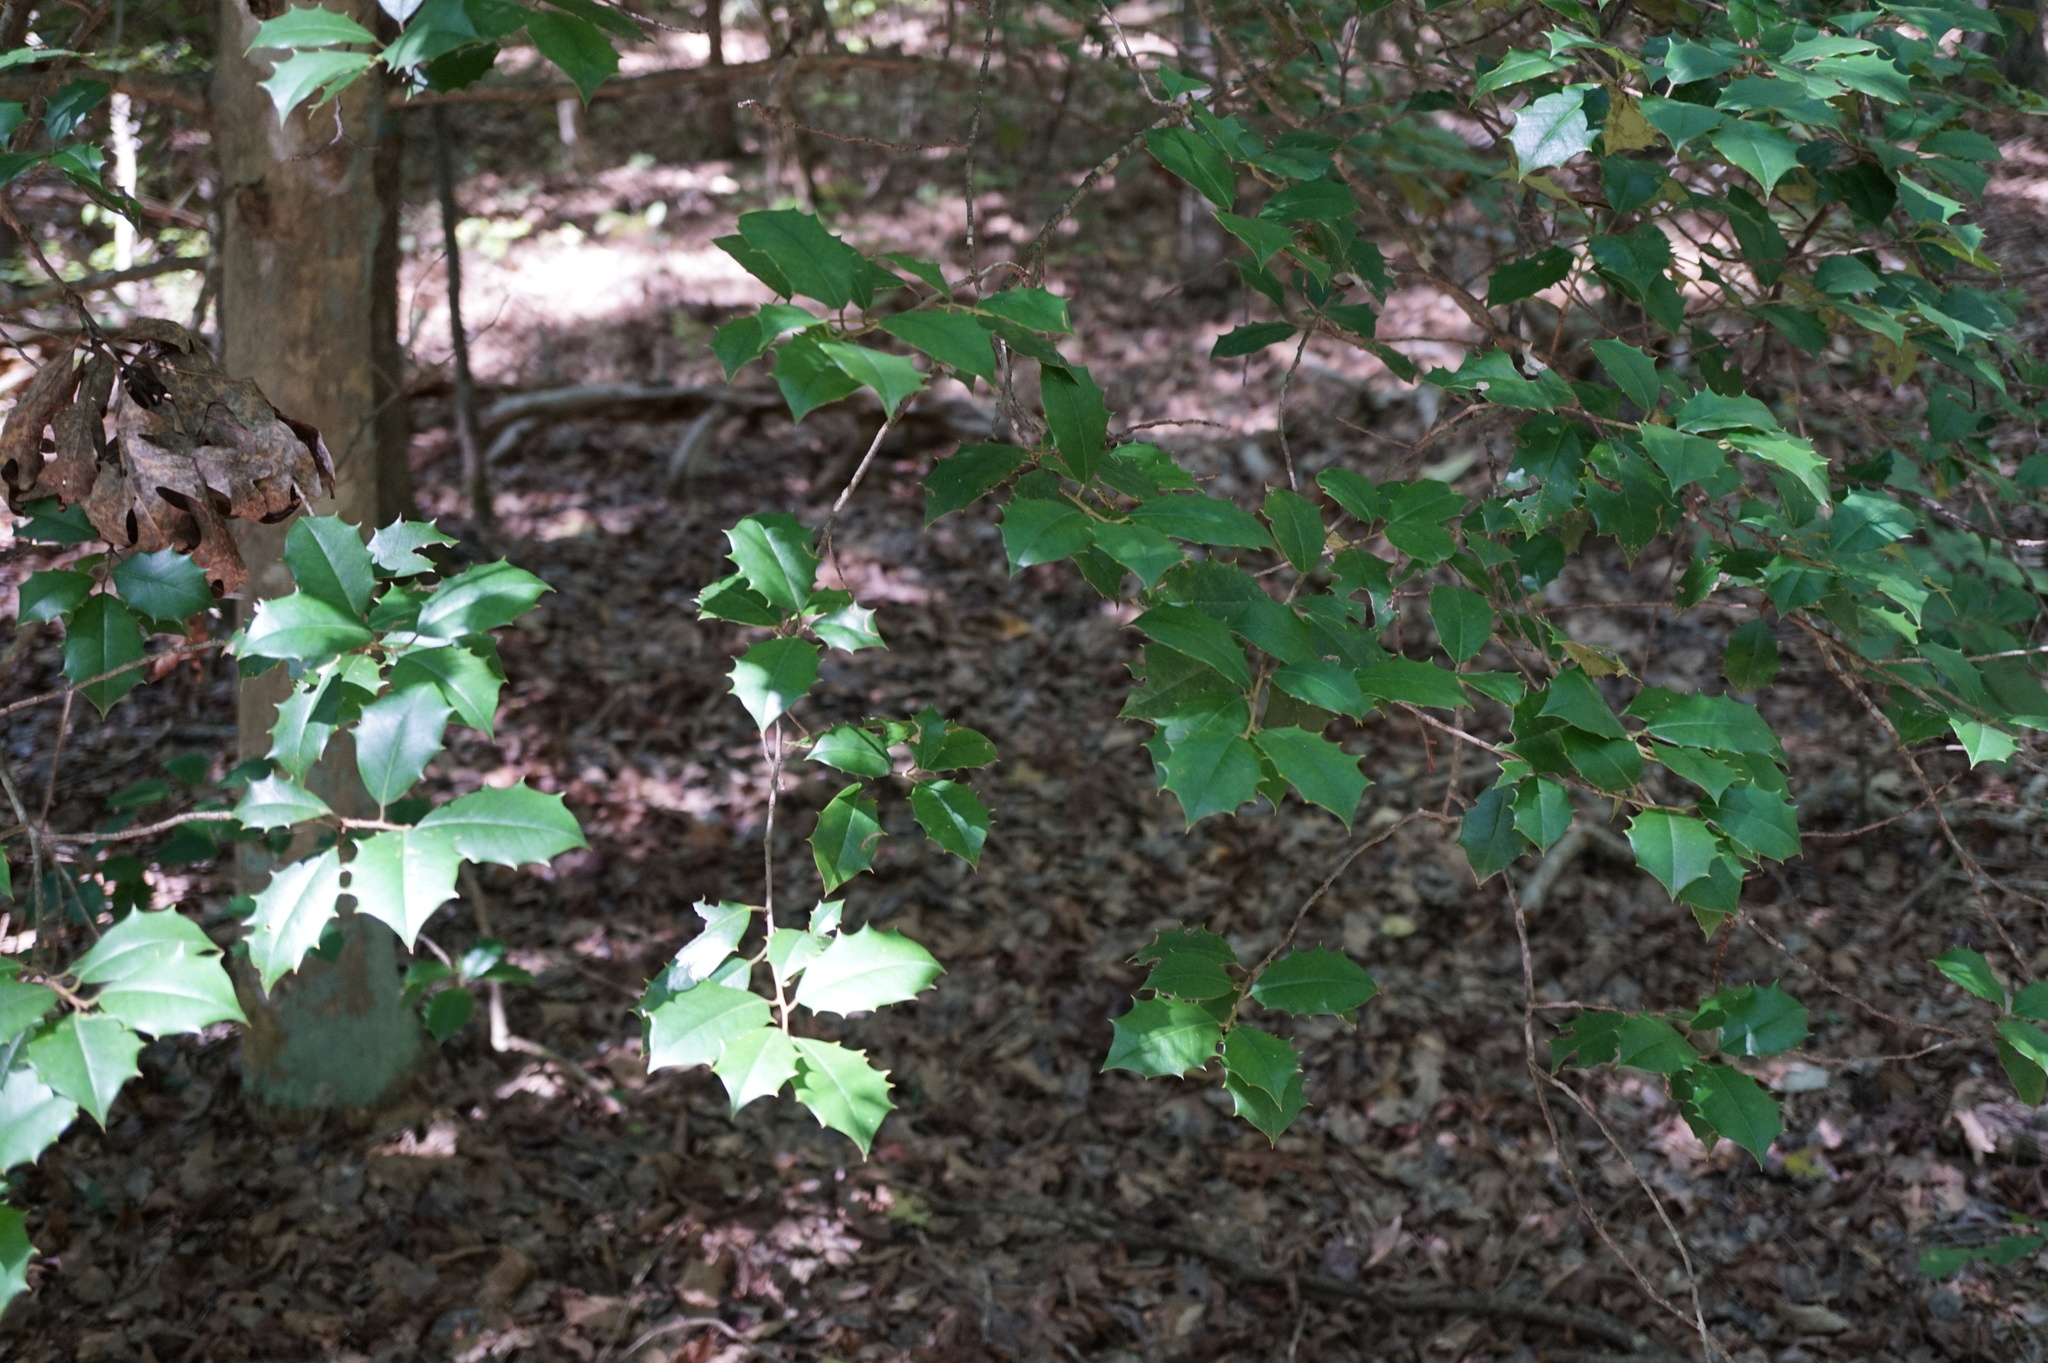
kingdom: Plantae
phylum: Tracheophyta
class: Magnoliopsida
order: Aquifoliales
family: Aquifoliaceae
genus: Ilex
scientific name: Ilex opaca
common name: American holly
